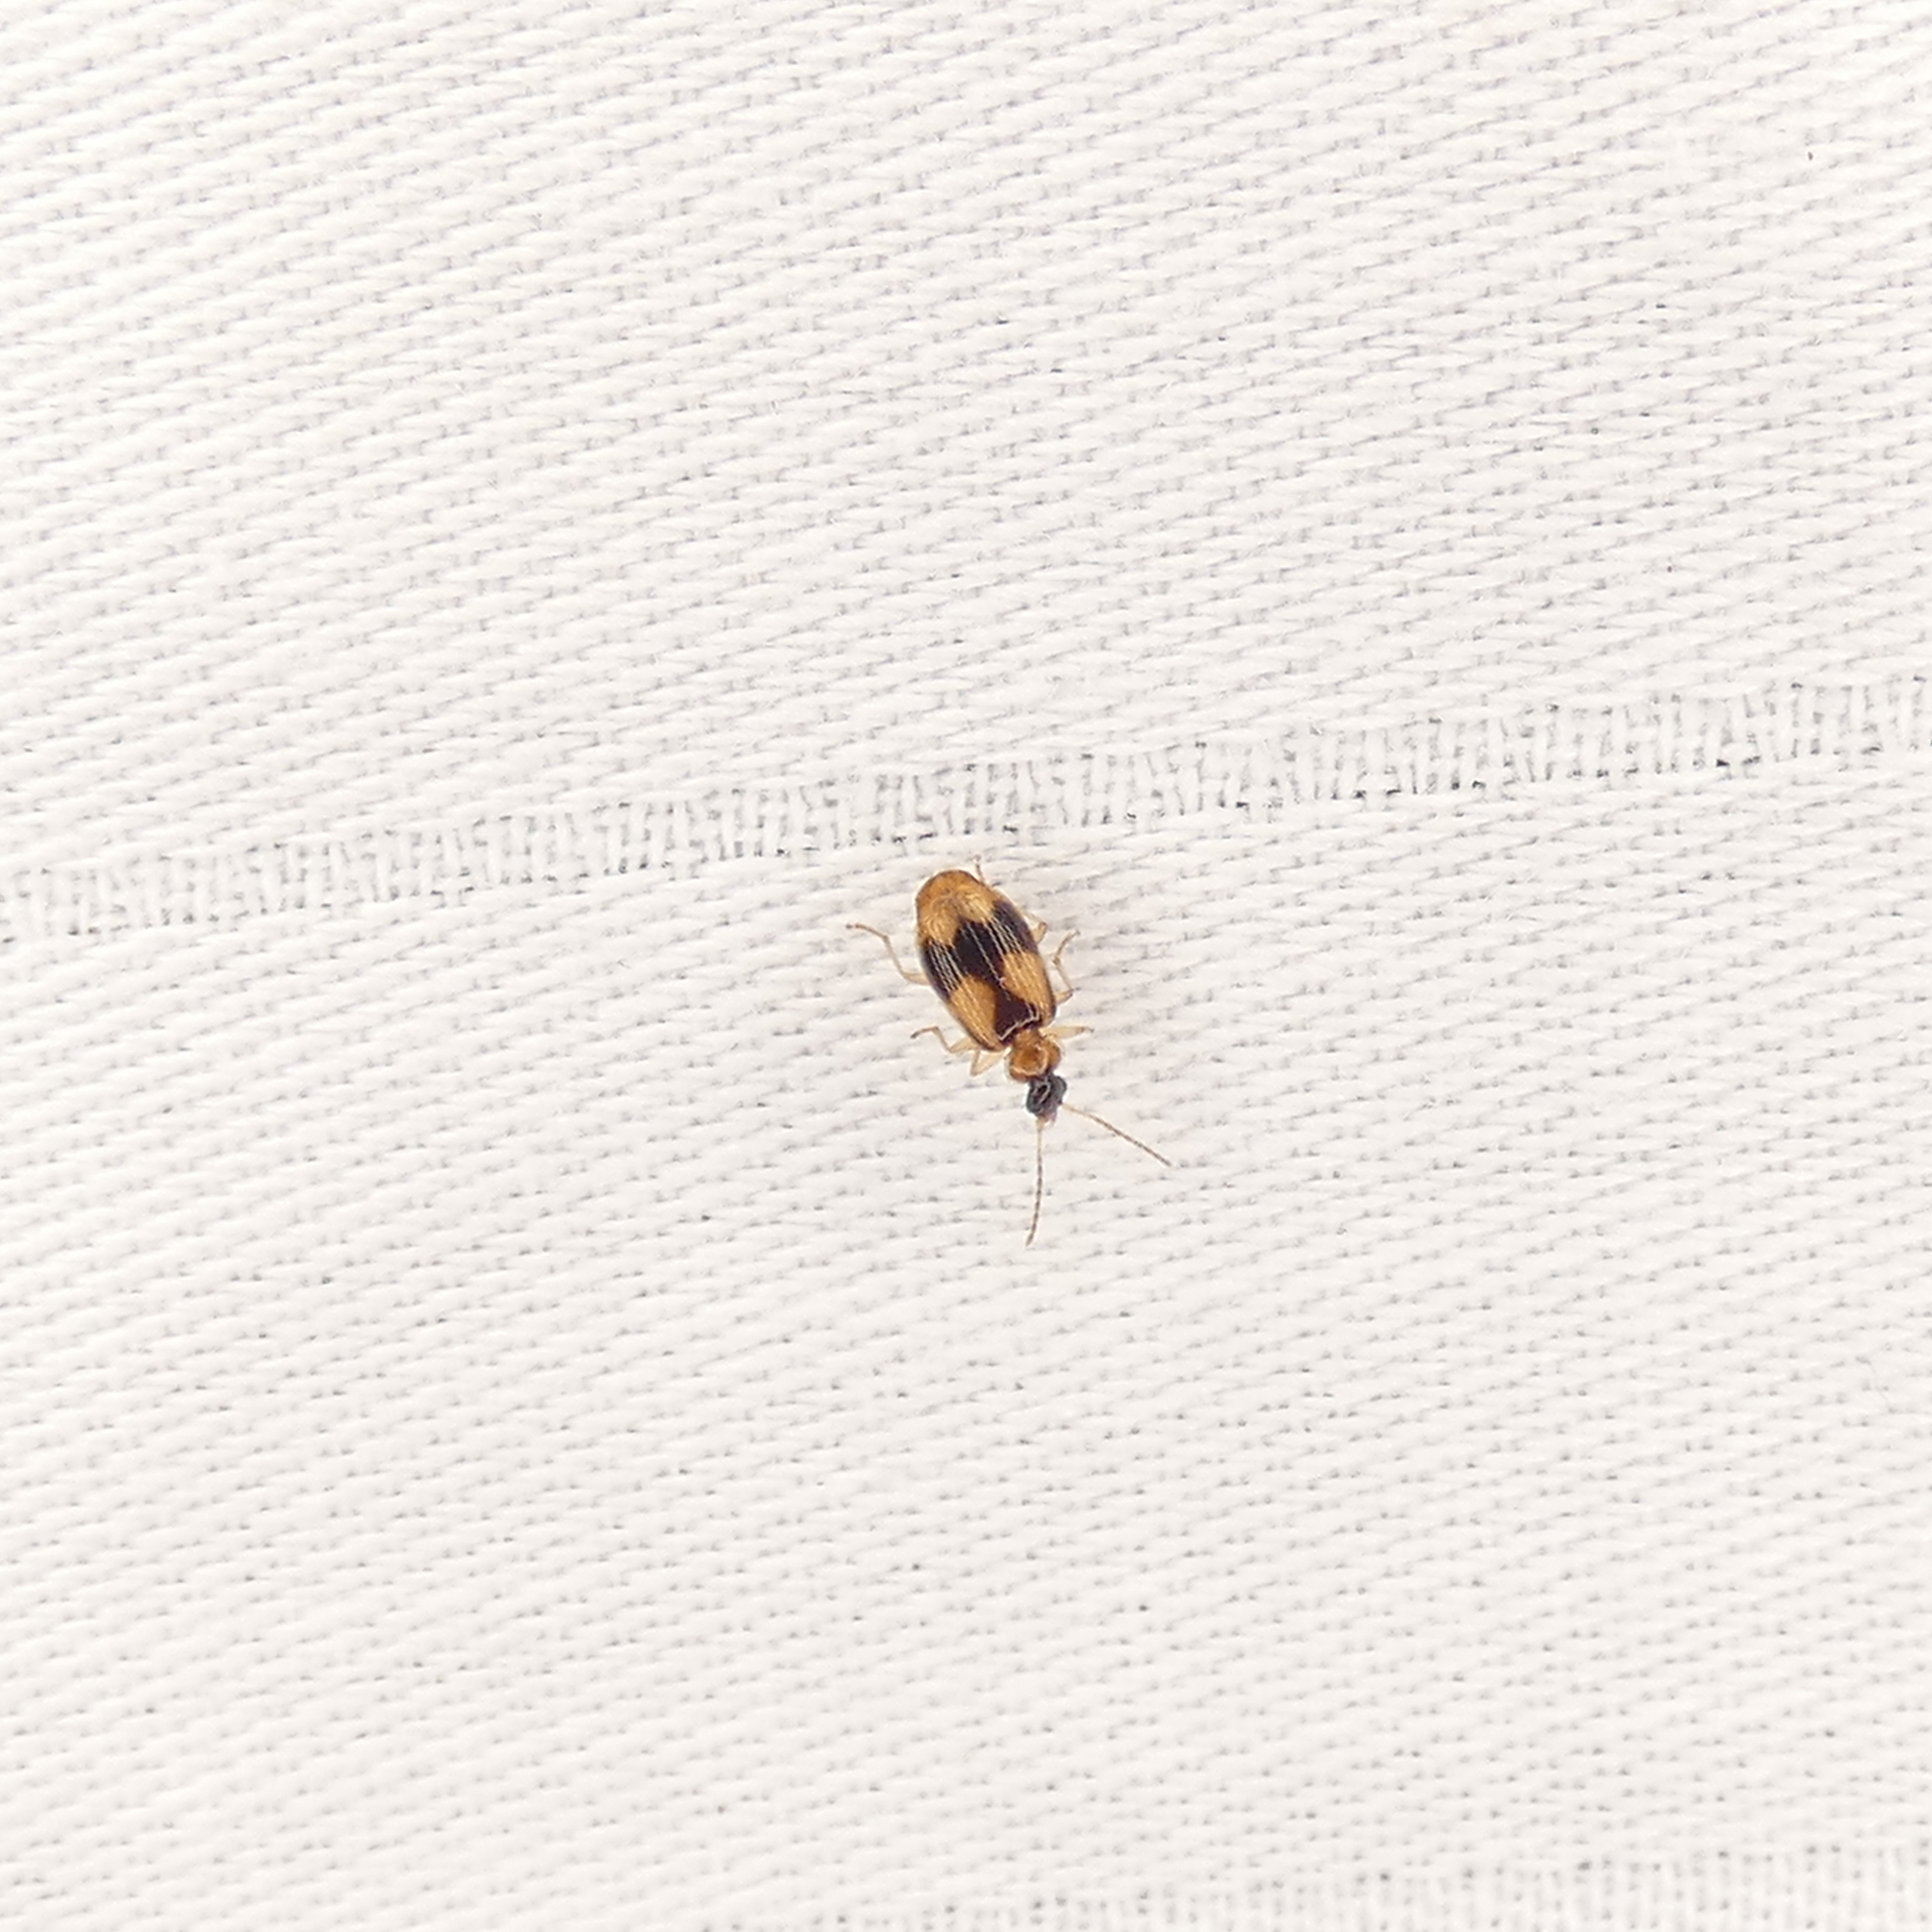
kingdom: Animalia
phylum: Arthropoda
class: Insecta
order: Coleoptera
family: Carabidae
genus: Lebia
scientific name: Lebia esurialis
